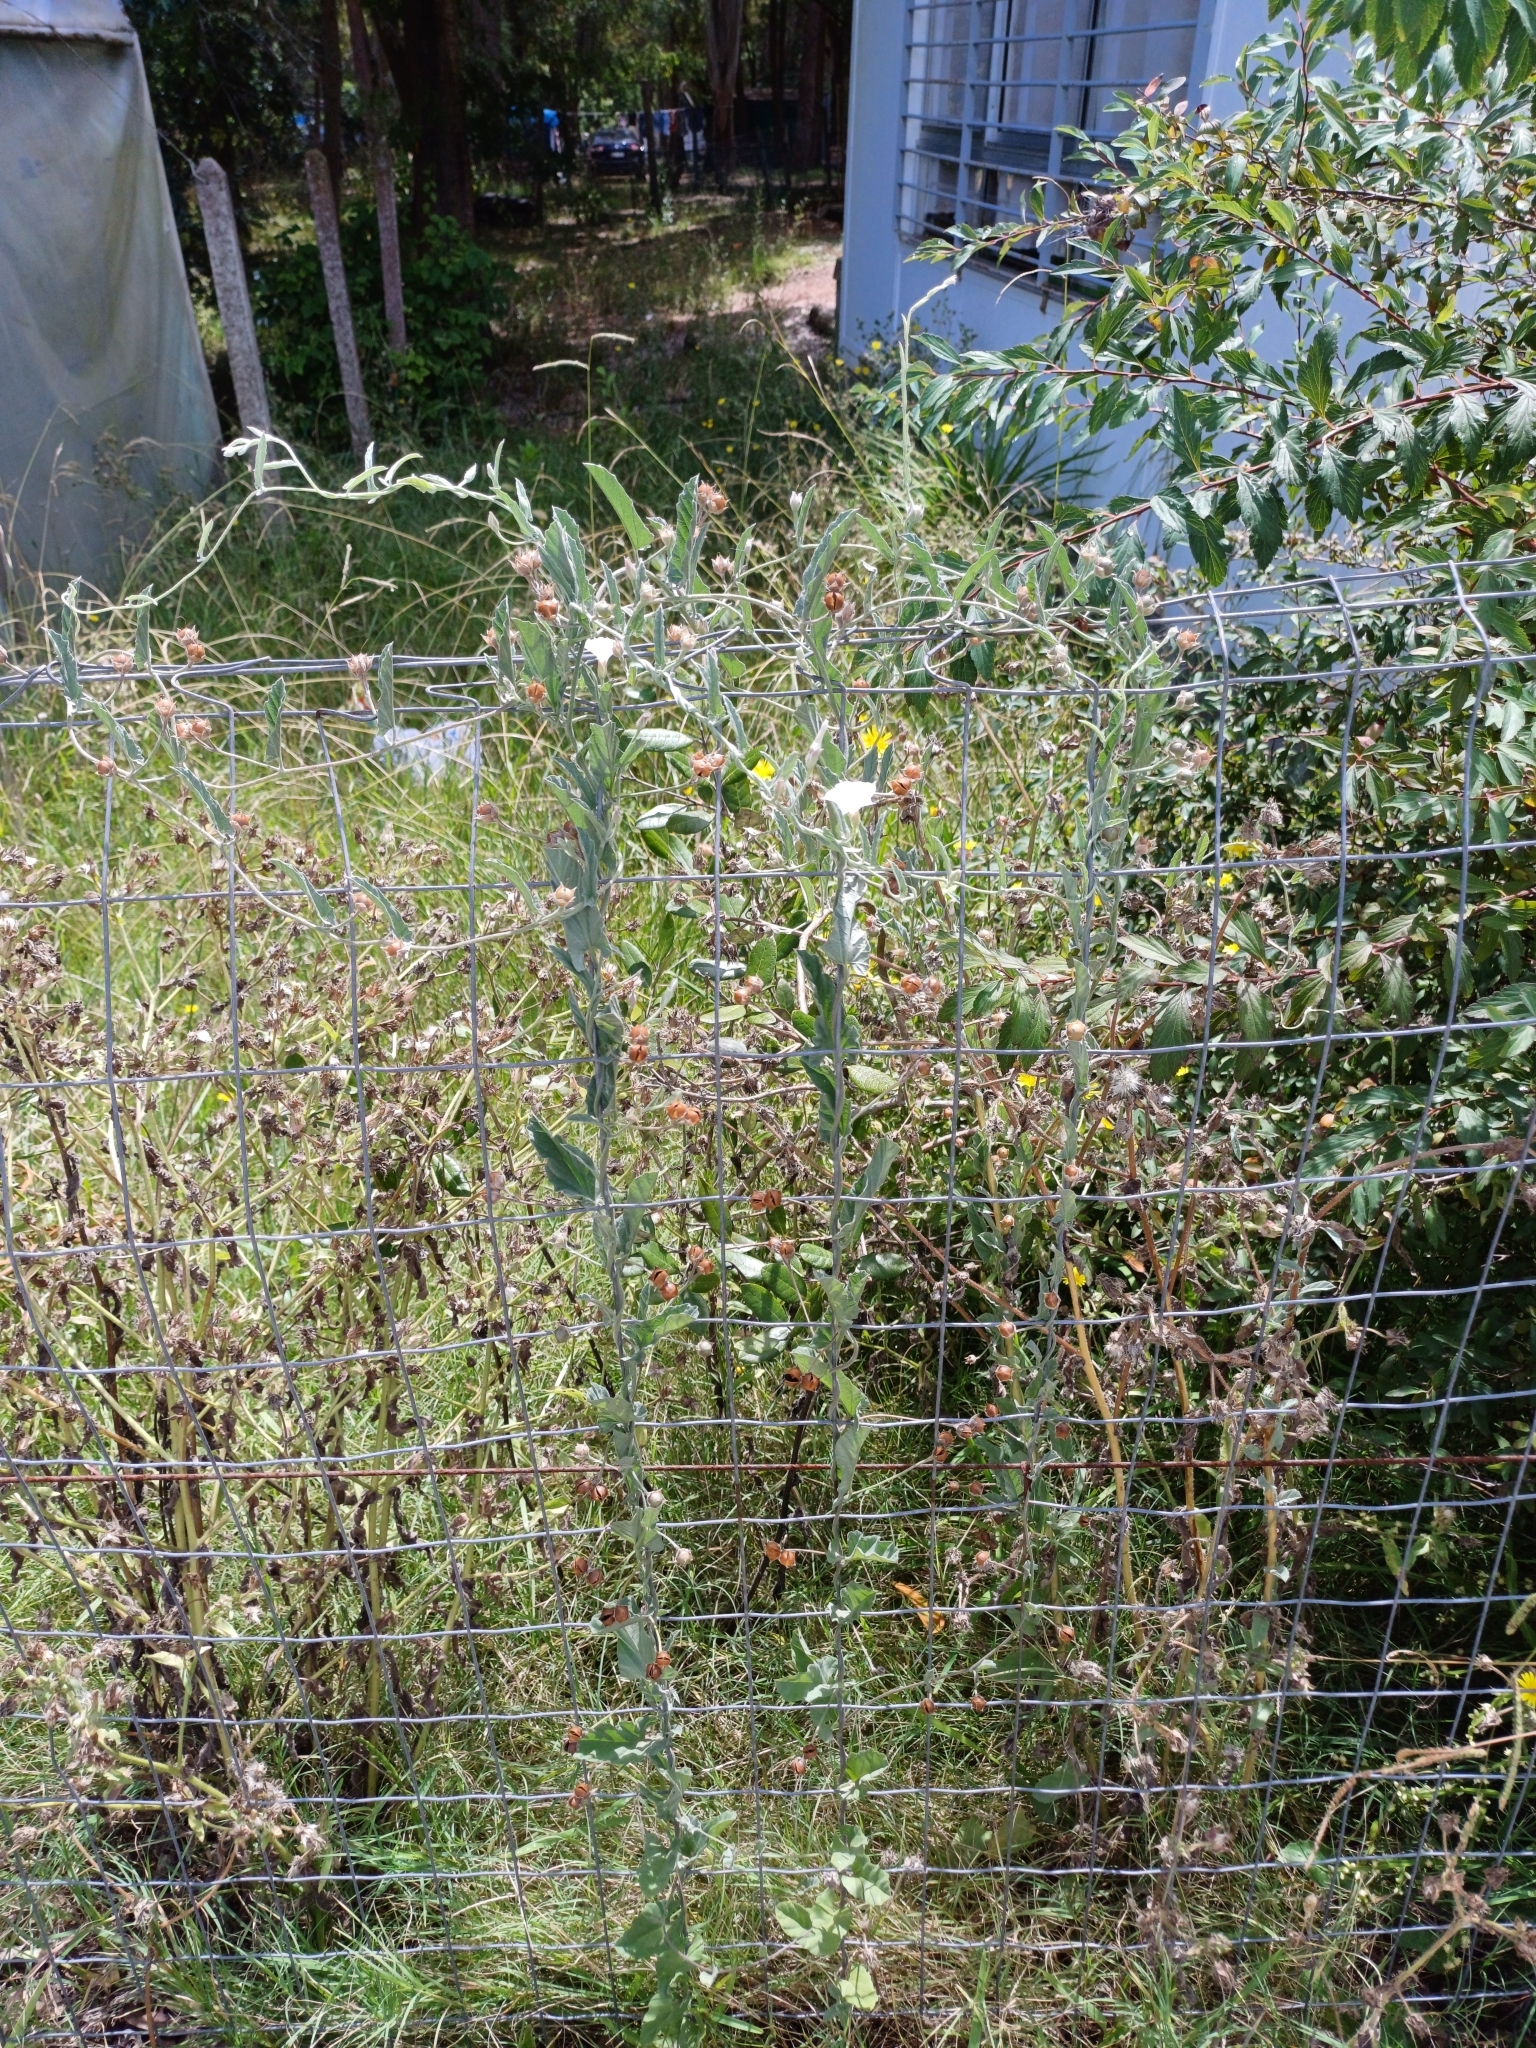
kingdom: Plantae
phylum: Tracheophyta
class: Magnoliopsida
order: Solanales
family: Convolvulaceae
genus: Convolvulus
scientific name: Convolvulus hermanniae
